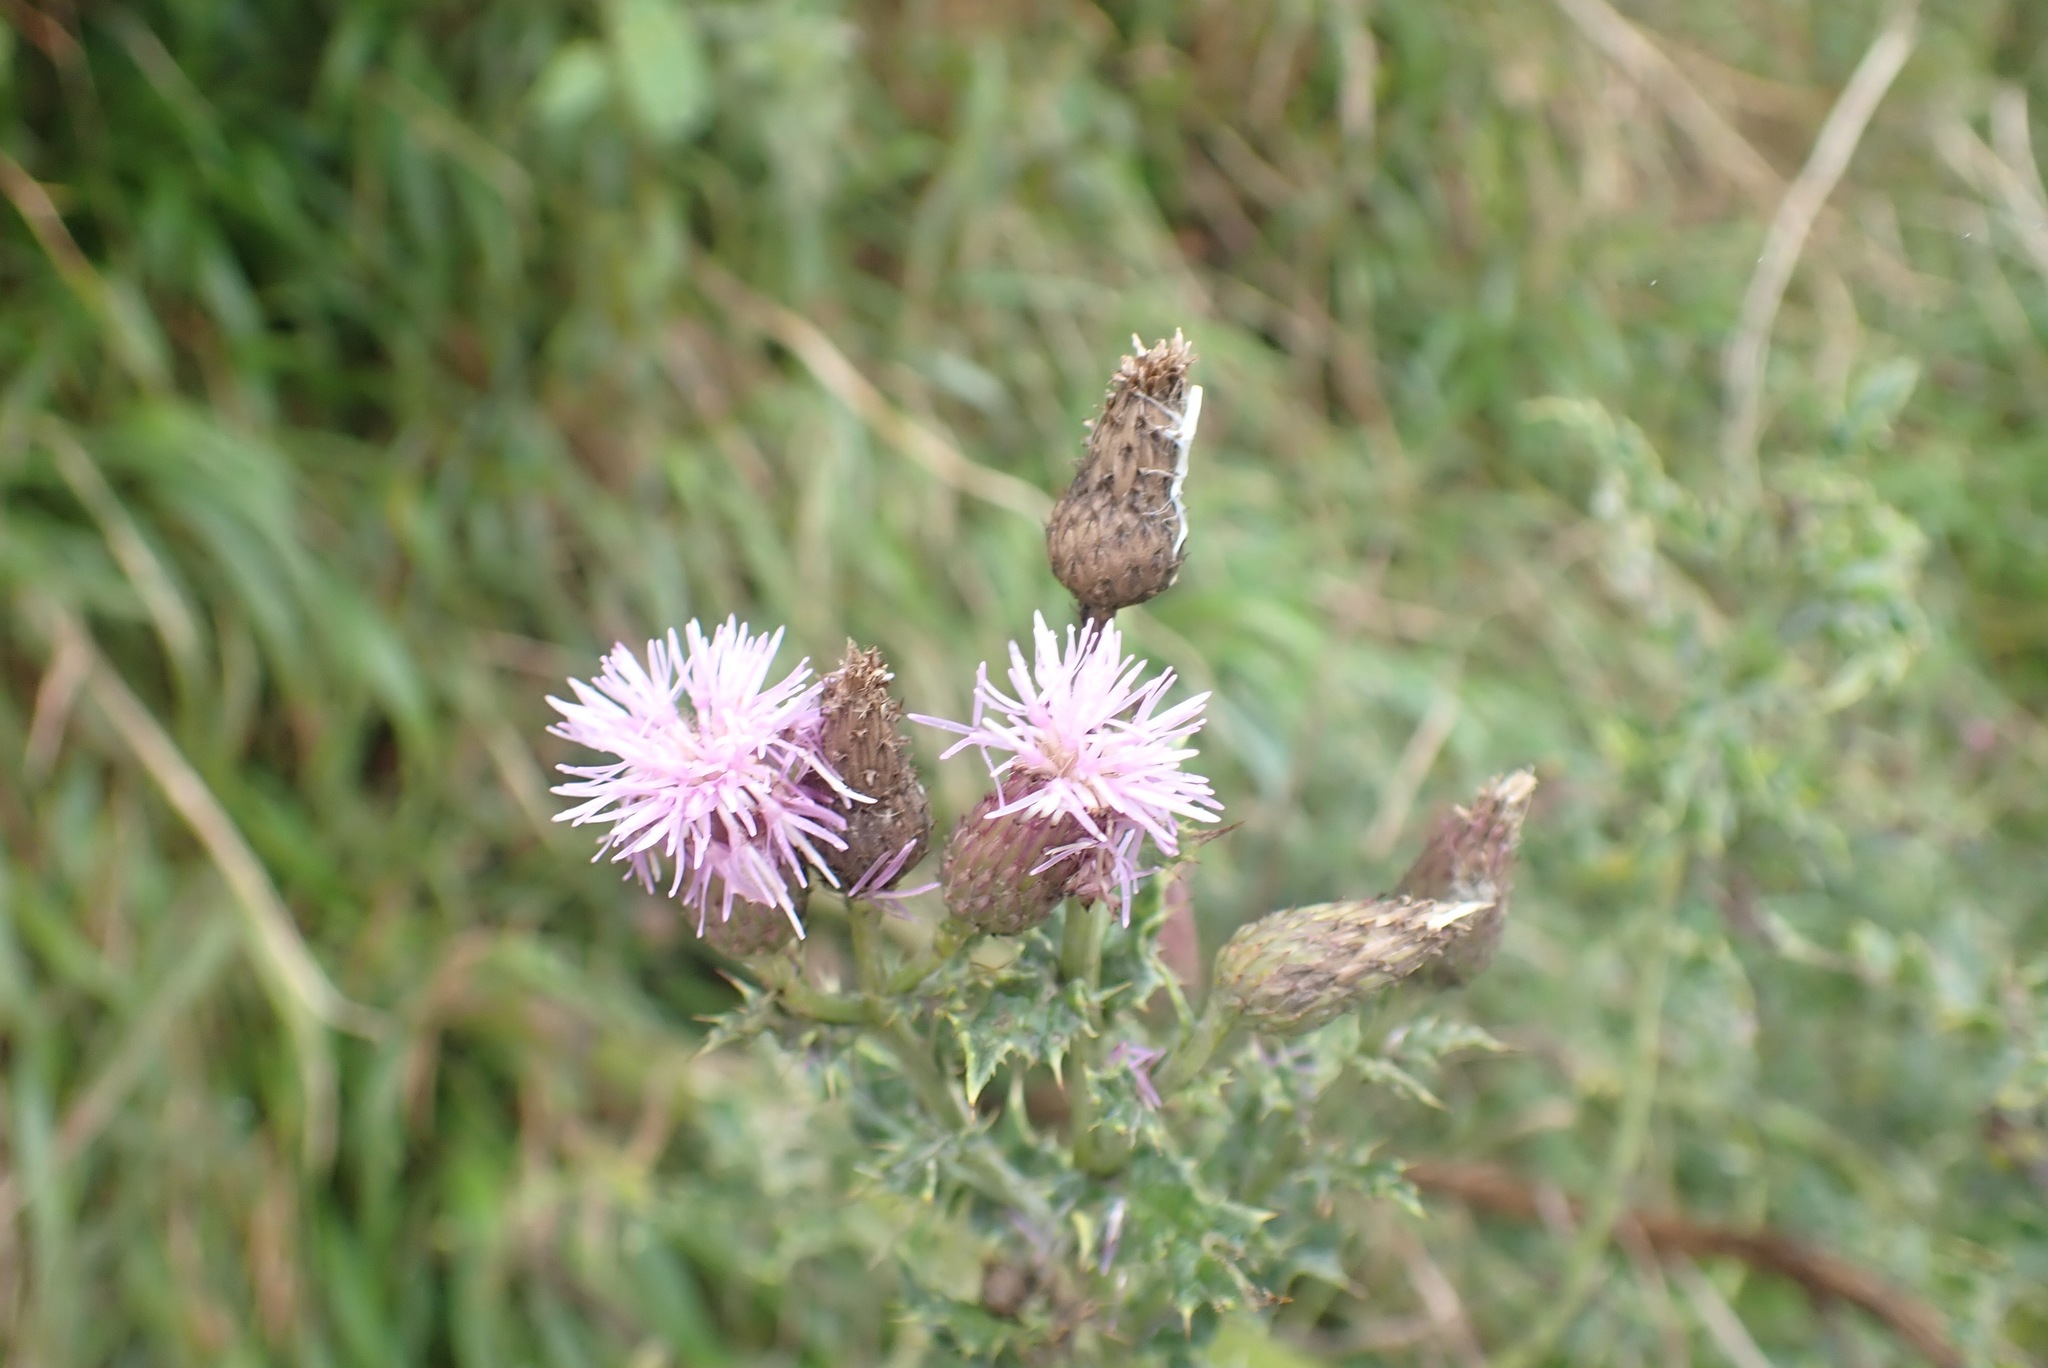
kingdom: Plantae
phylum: Tracheophyta
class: Magnoliopsida
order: Asterales
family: Asteraceae
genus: Cirsium
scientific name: Cirsium arvense
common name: Creeping thistle
